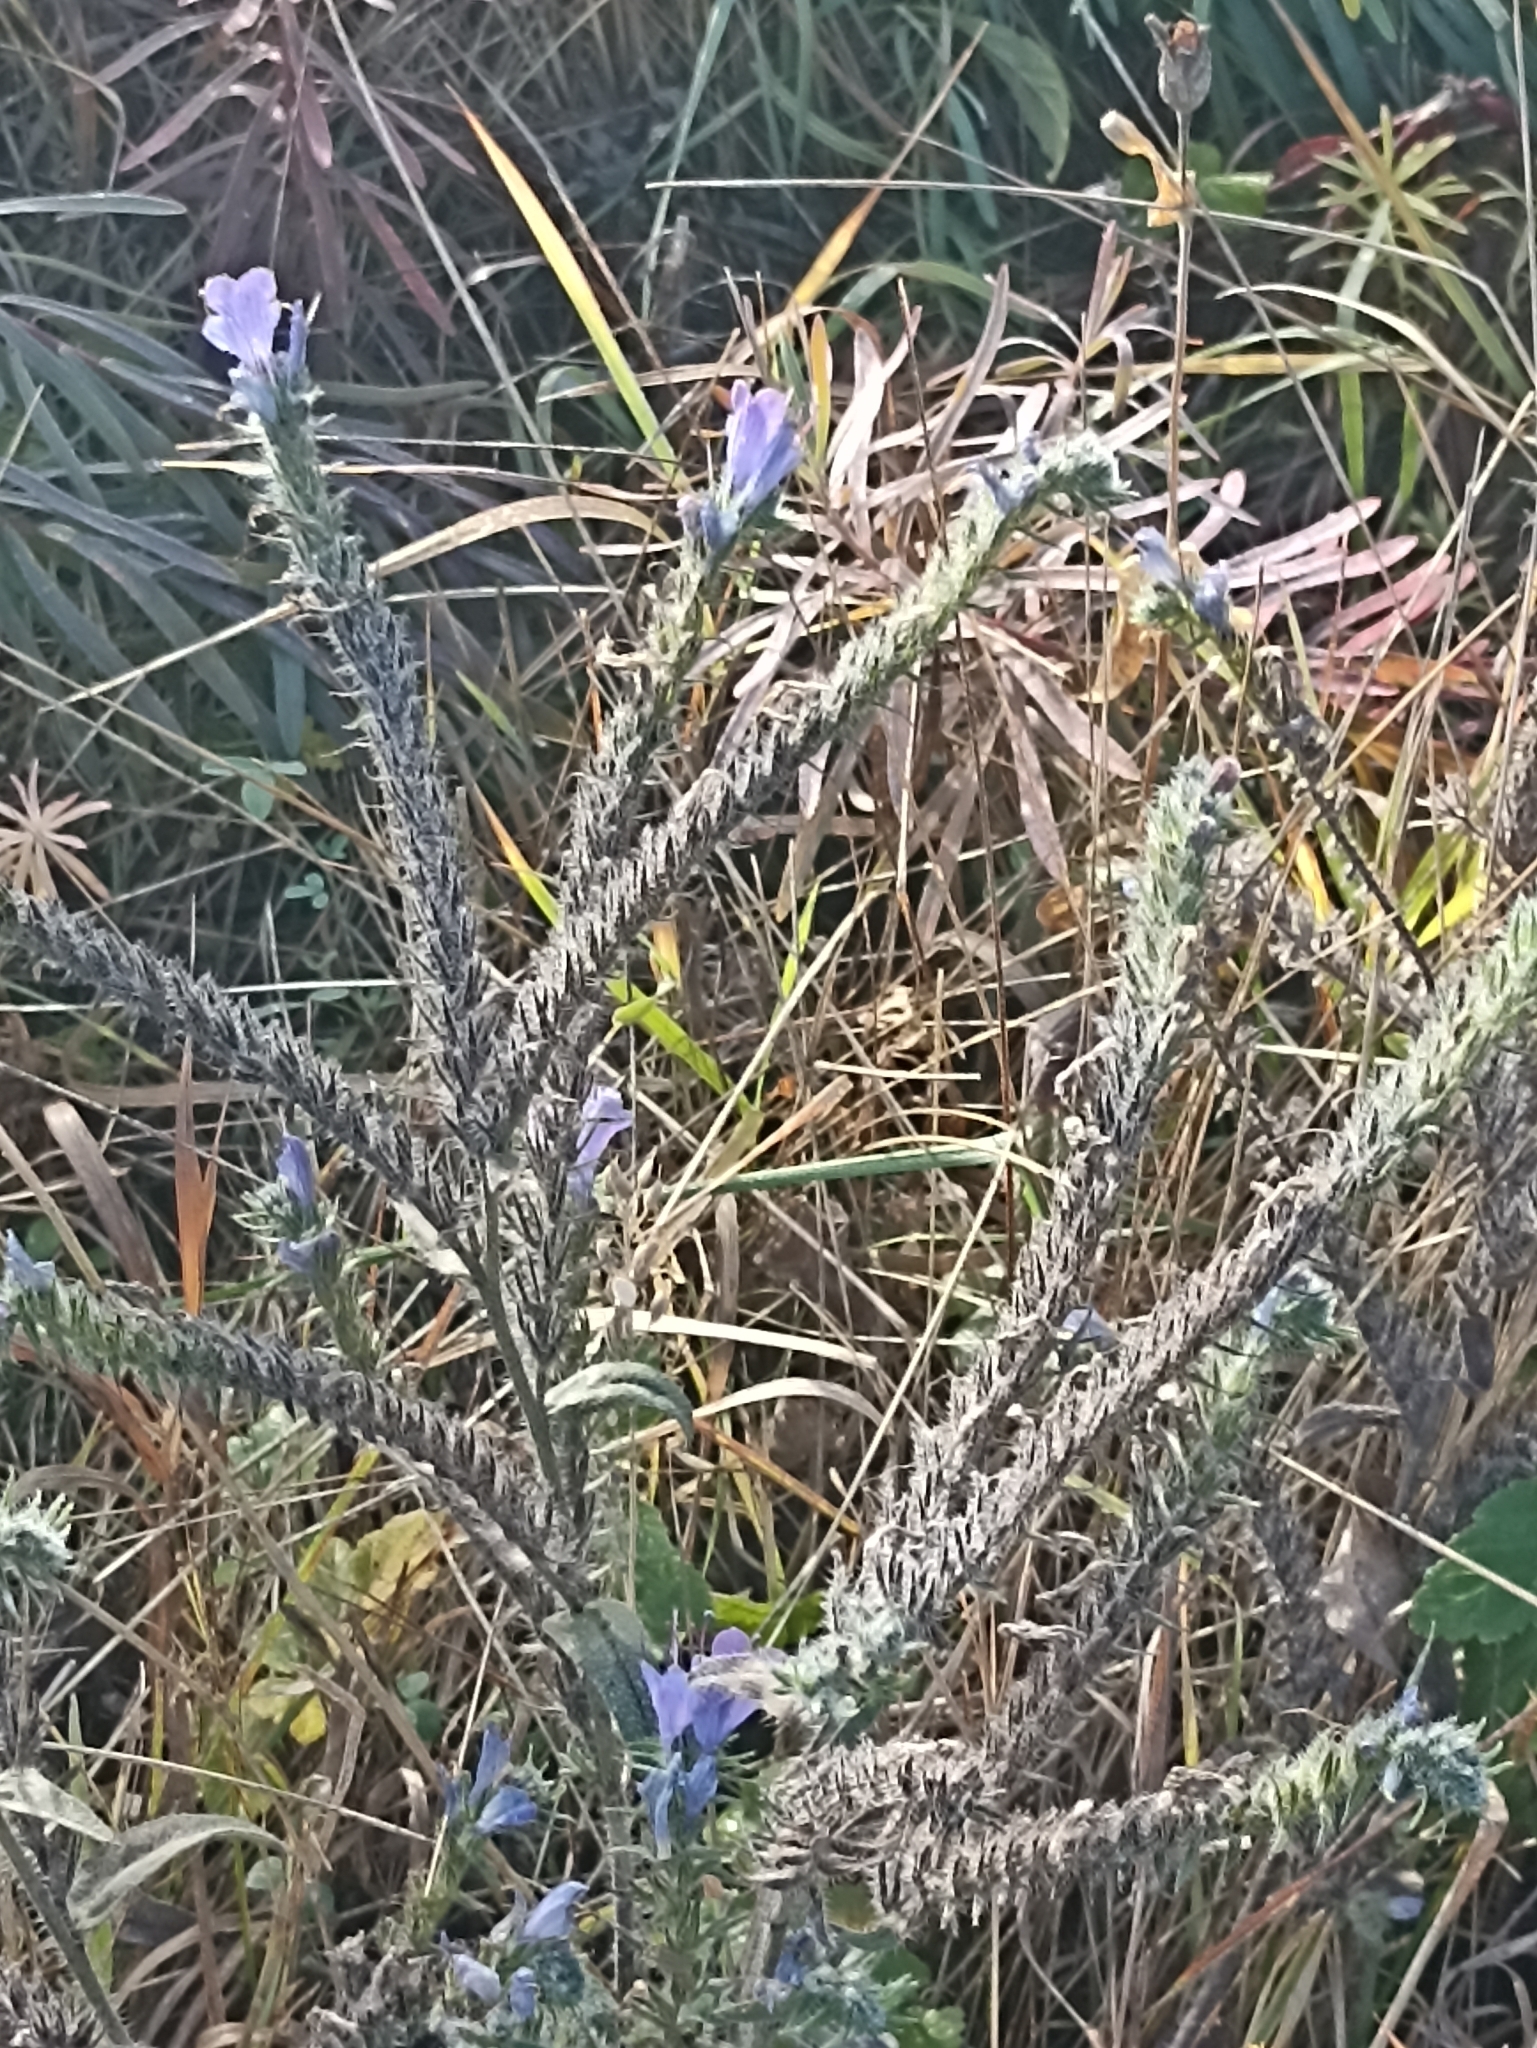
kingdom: Plantae
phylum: Tracheophyta
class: Magnoliopsida
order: Boraginales
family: Boraginaceae
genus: Echium
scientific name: Echium vulgare
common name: Common viper's bugloss
